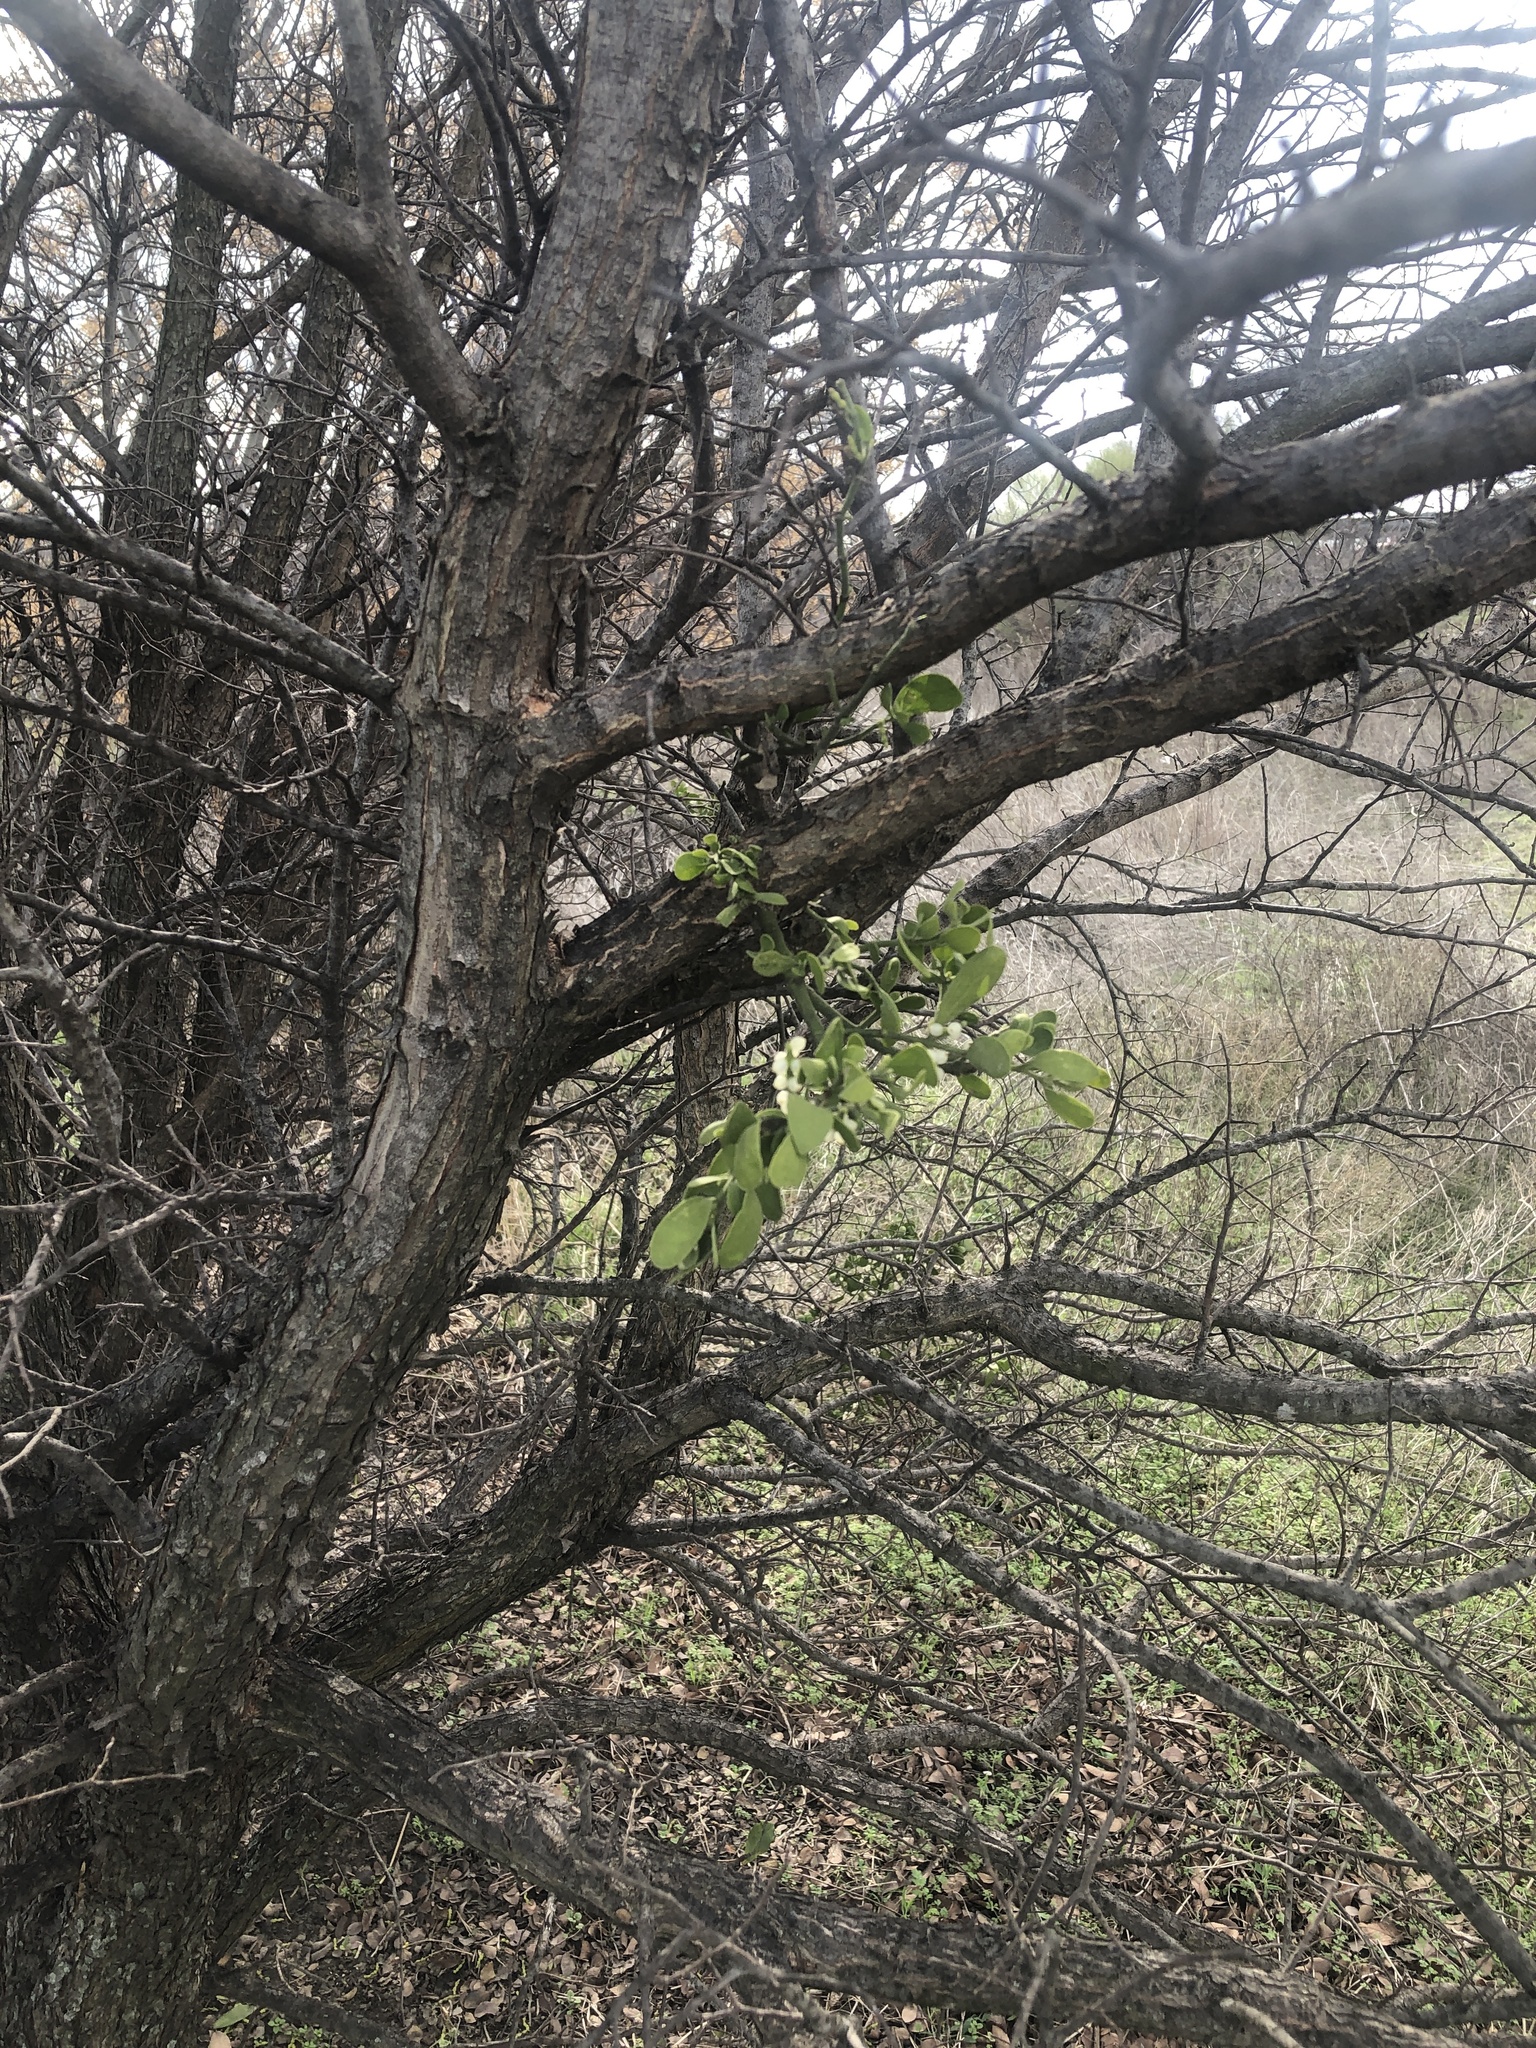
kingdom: Plantae
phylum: Tracheophyta
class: Magnoliopsida
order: Santalales
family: Viscaceae
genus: Phoradendron
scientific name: Phoradendron leucarpum
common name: Pacific mistletoe
